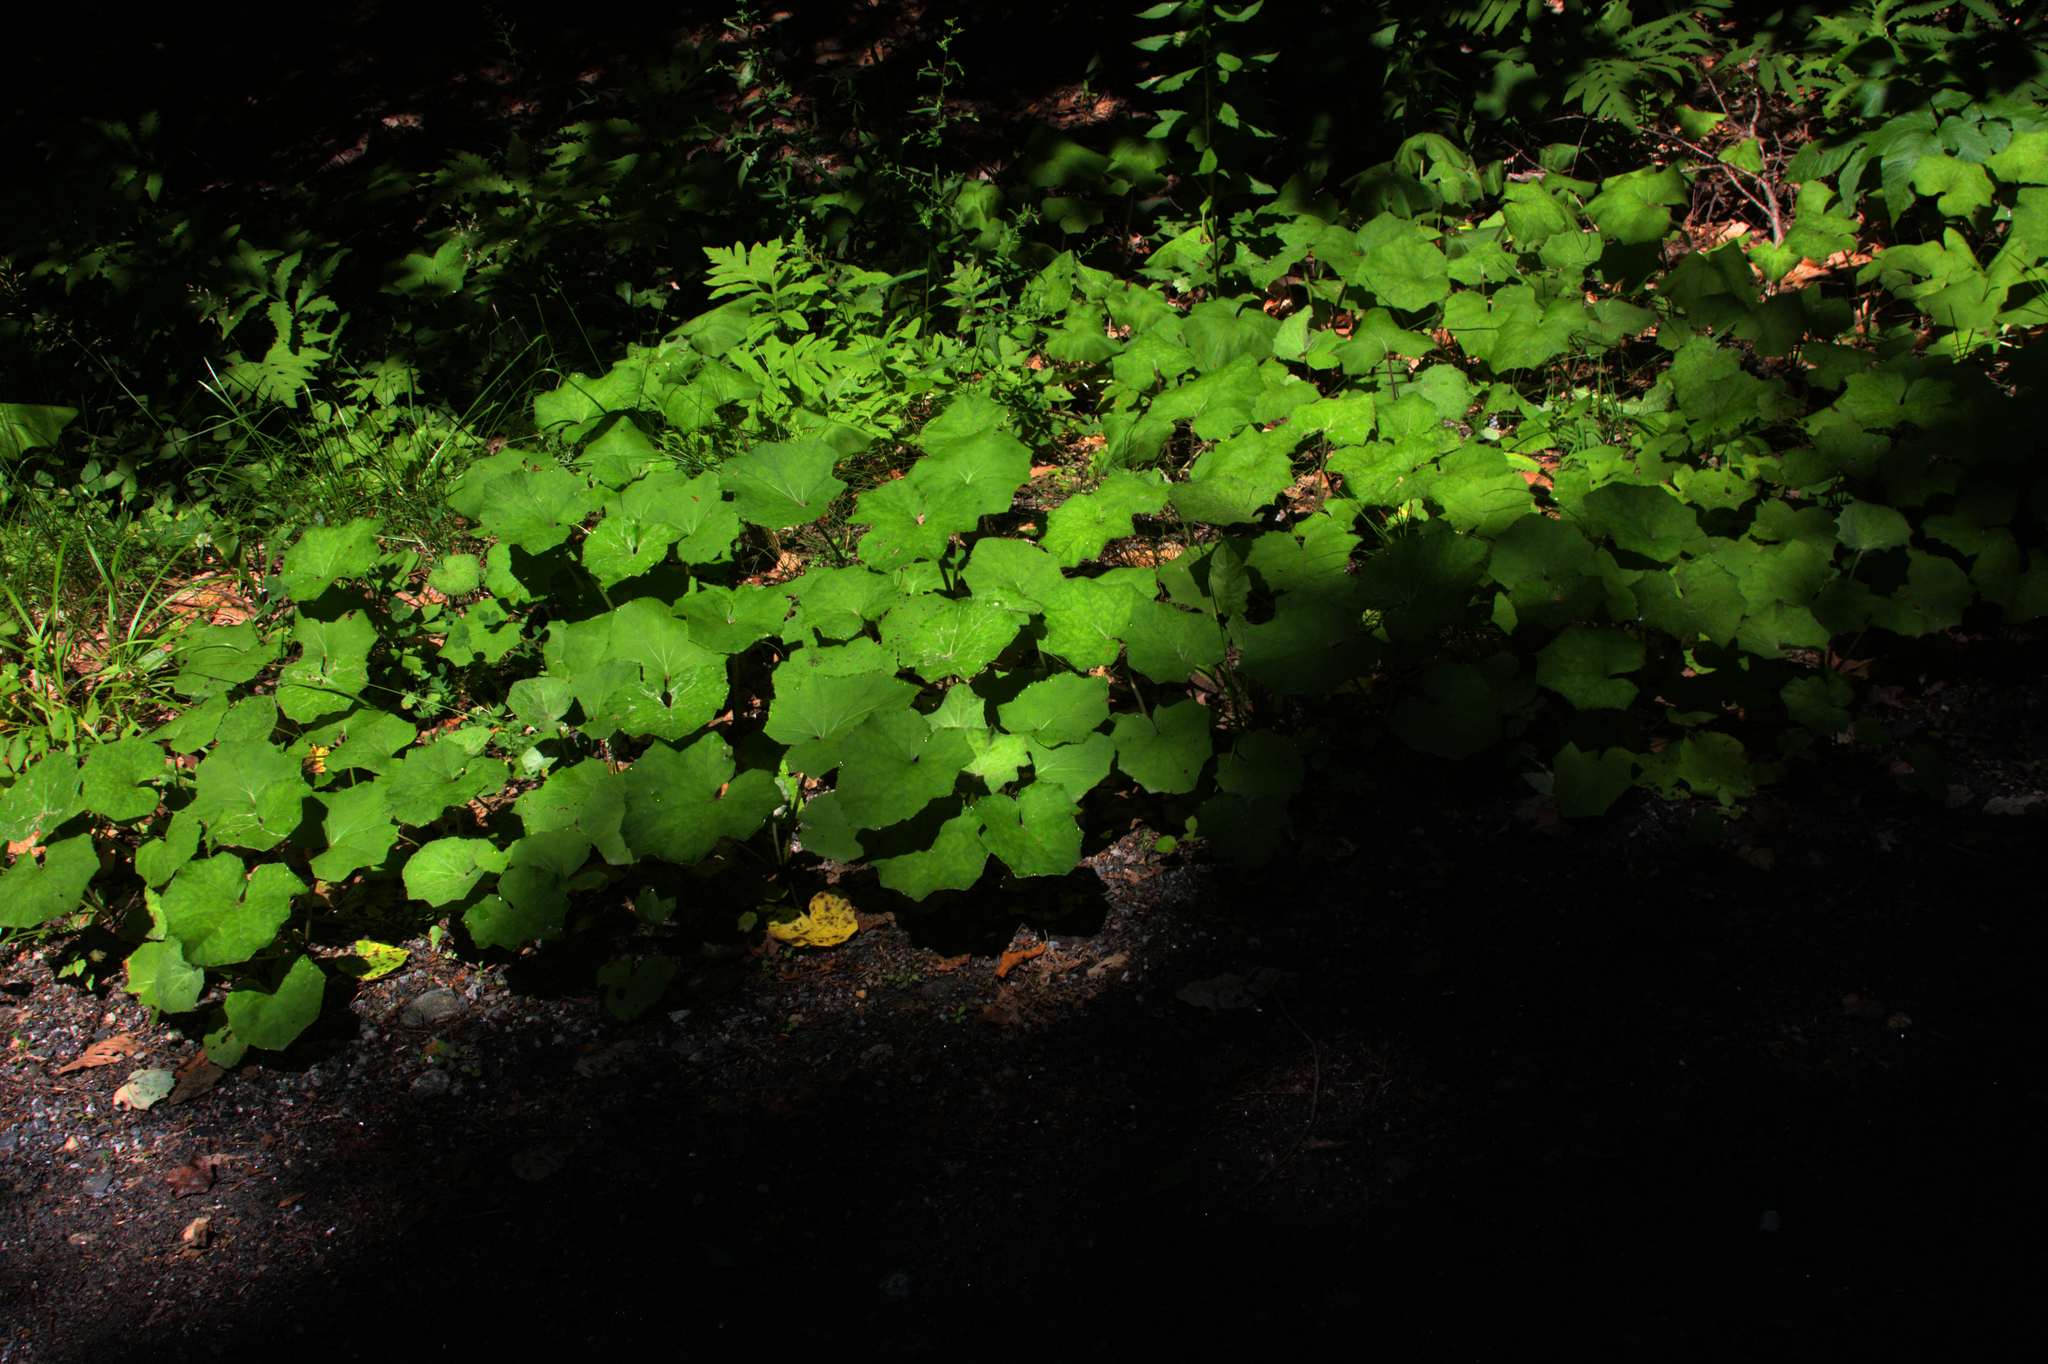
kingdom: Plantae
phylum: Tracheophyta
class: Magnoliopsida
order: Asterales
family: Asteraceae
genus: Tussilago
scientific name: Tussilago farfara
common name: Coltsfoot
